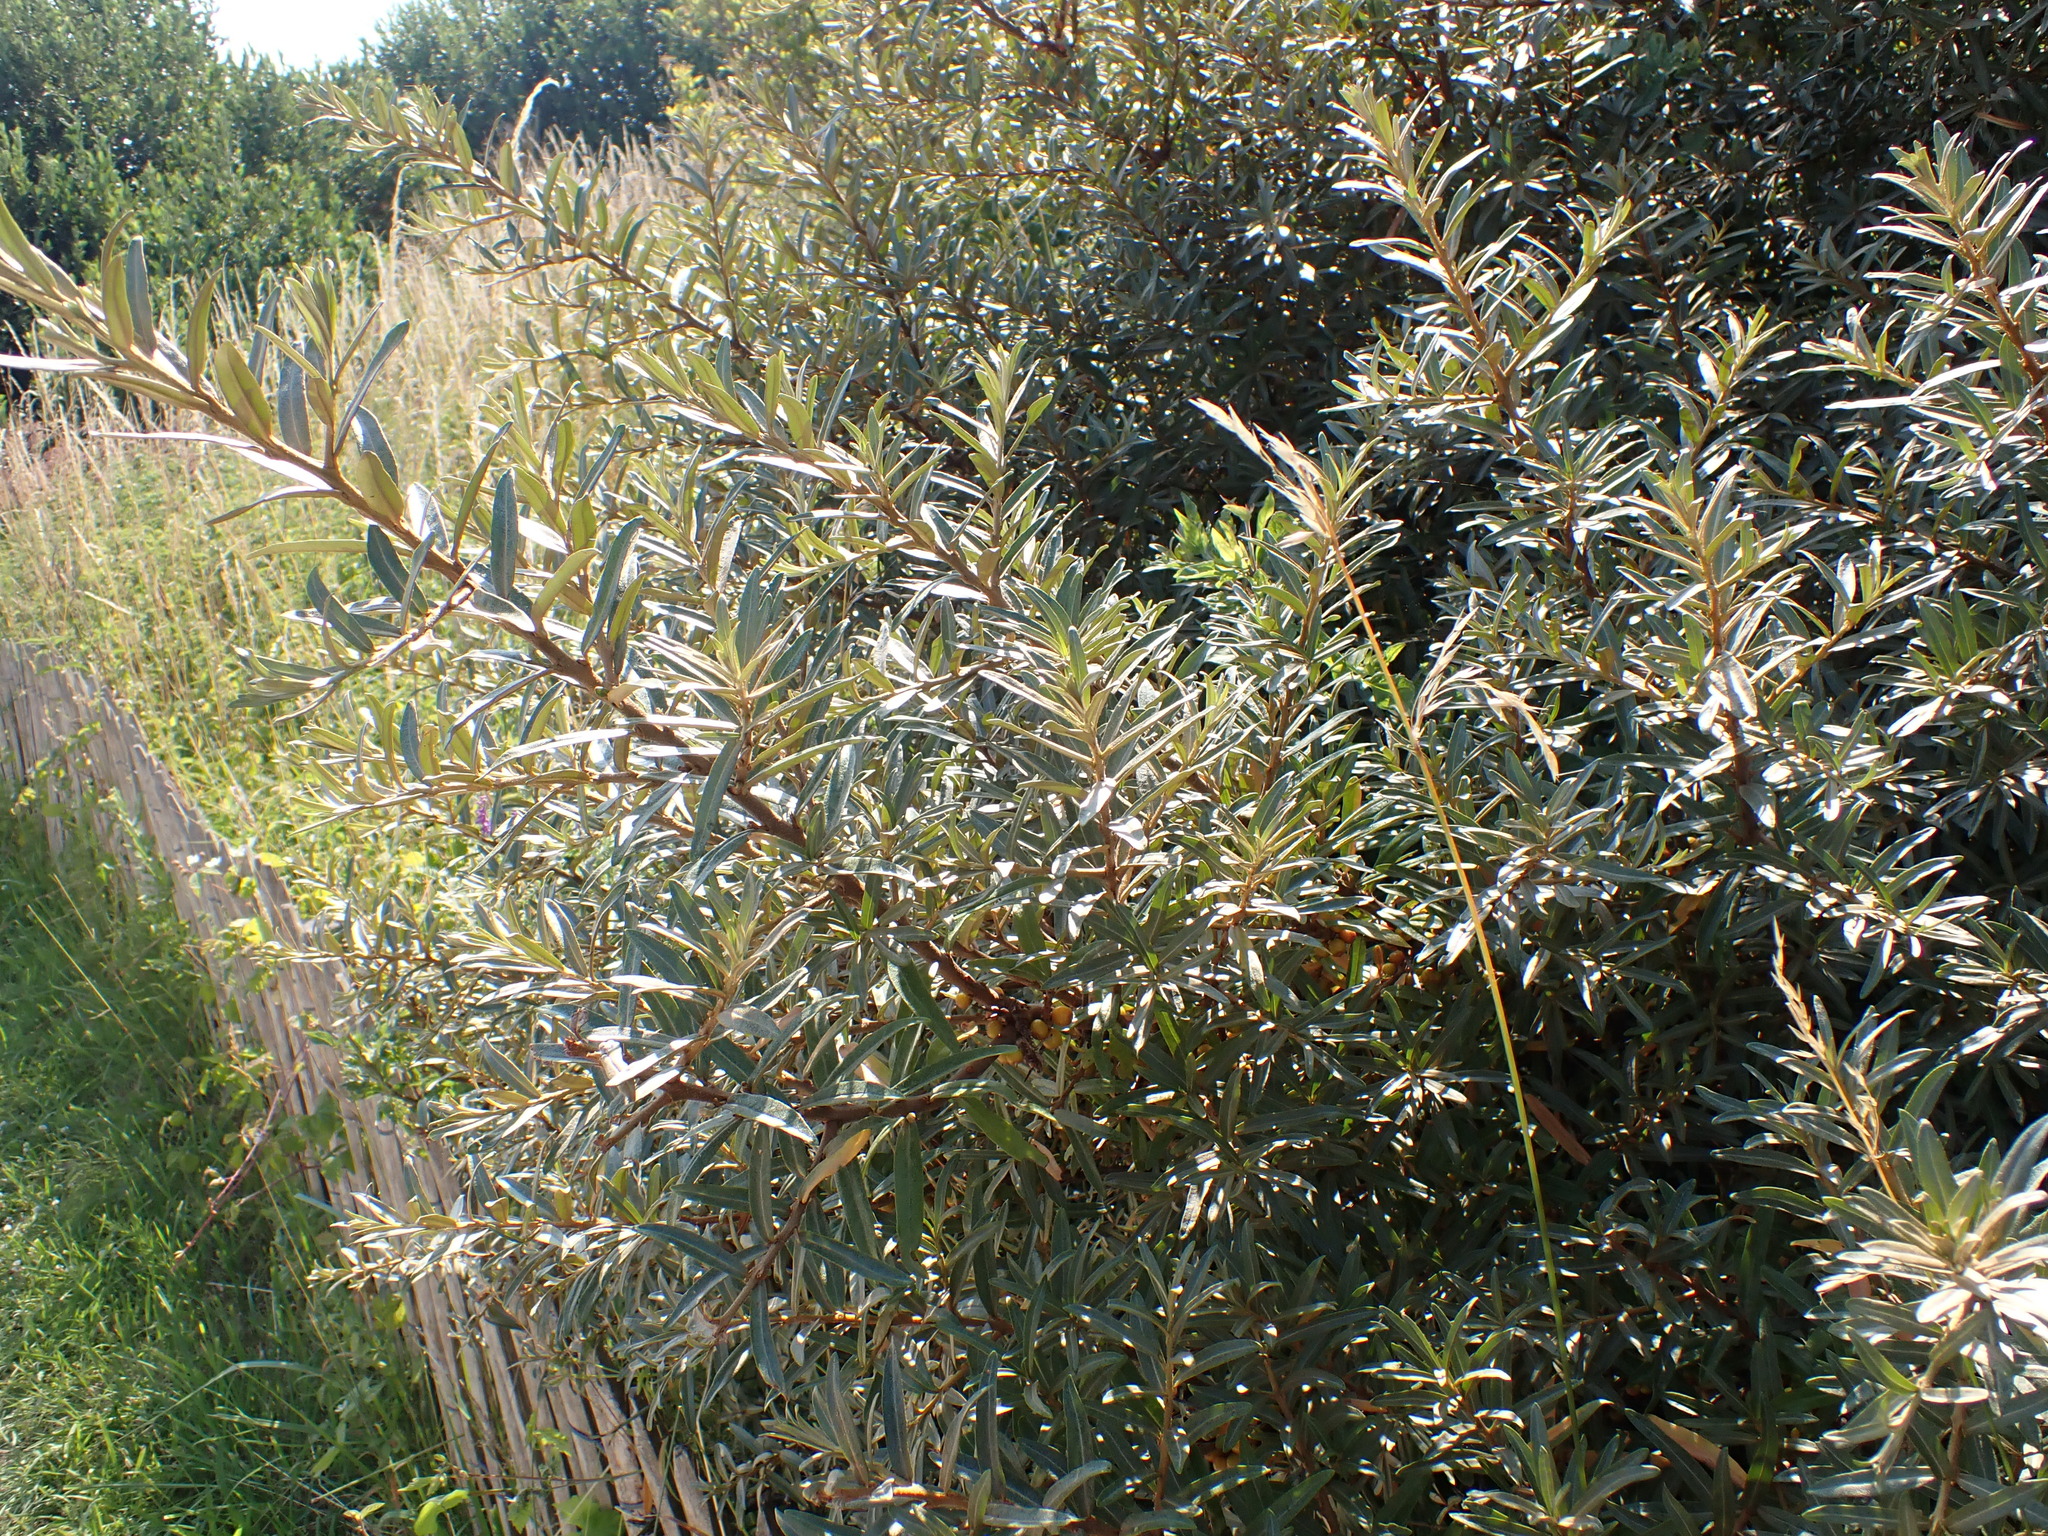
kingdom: Plantae
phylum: Tracheophyta
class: Magnoliopsida
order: Rosales
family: Elaeagnaceae
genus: Hippophae
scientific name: Hippophae rhamnoides
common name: Sea-buckthorn
